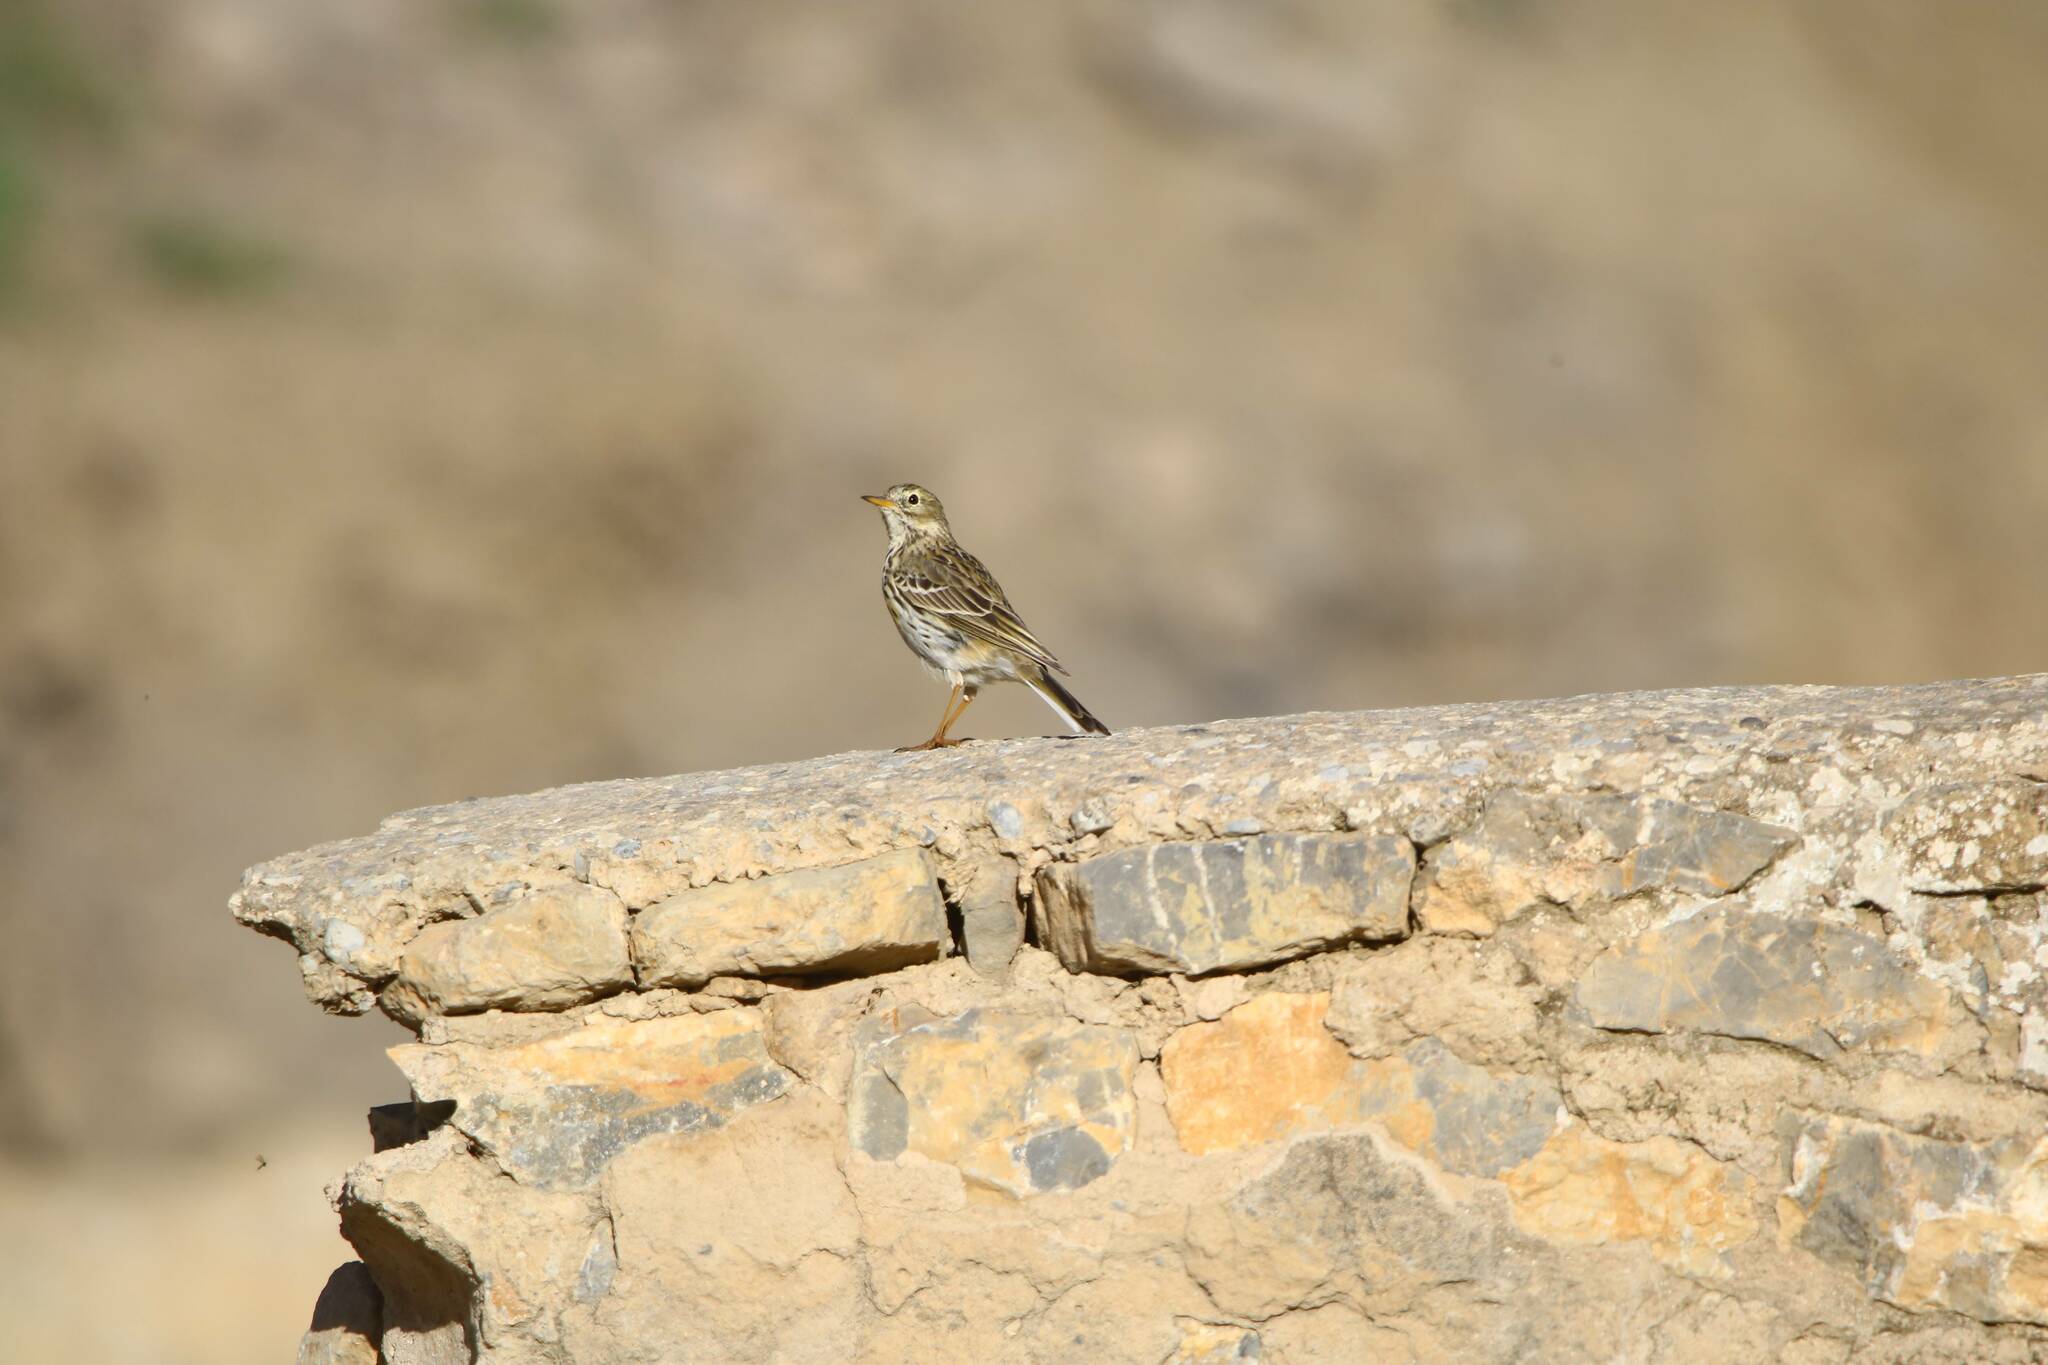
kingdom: Animalia
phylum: Chordata
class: Aves
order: Passeriformes
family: Motacillidae
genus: Anthus
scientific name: Anthus pratensis
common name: Meadow pipit
